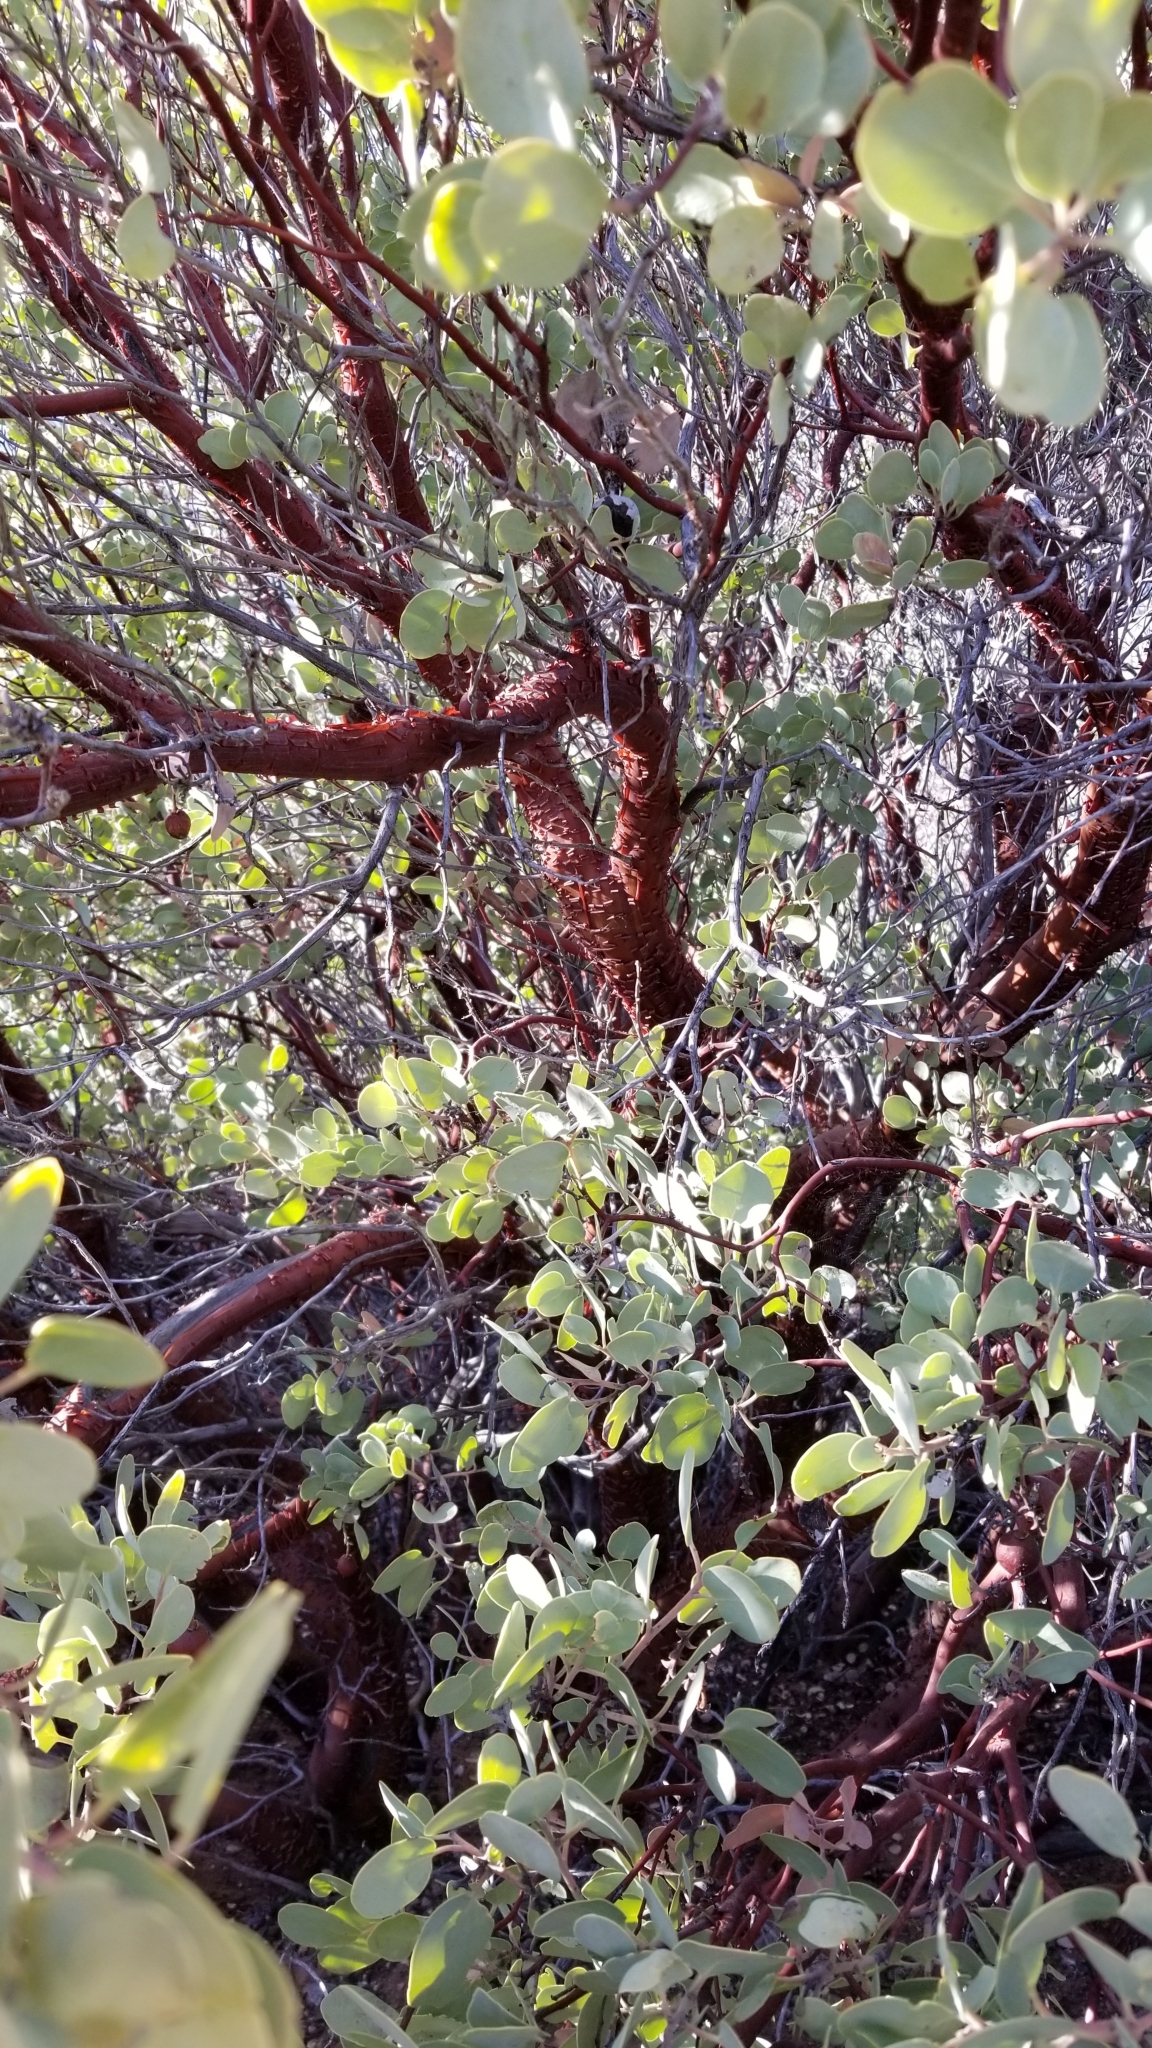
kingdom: Plantae
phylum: Tracheophyta
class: Magnoliopsida
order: Ericales
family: Ericaceae
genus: Arctostaphylos
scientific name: Arctostaphylos glauca
